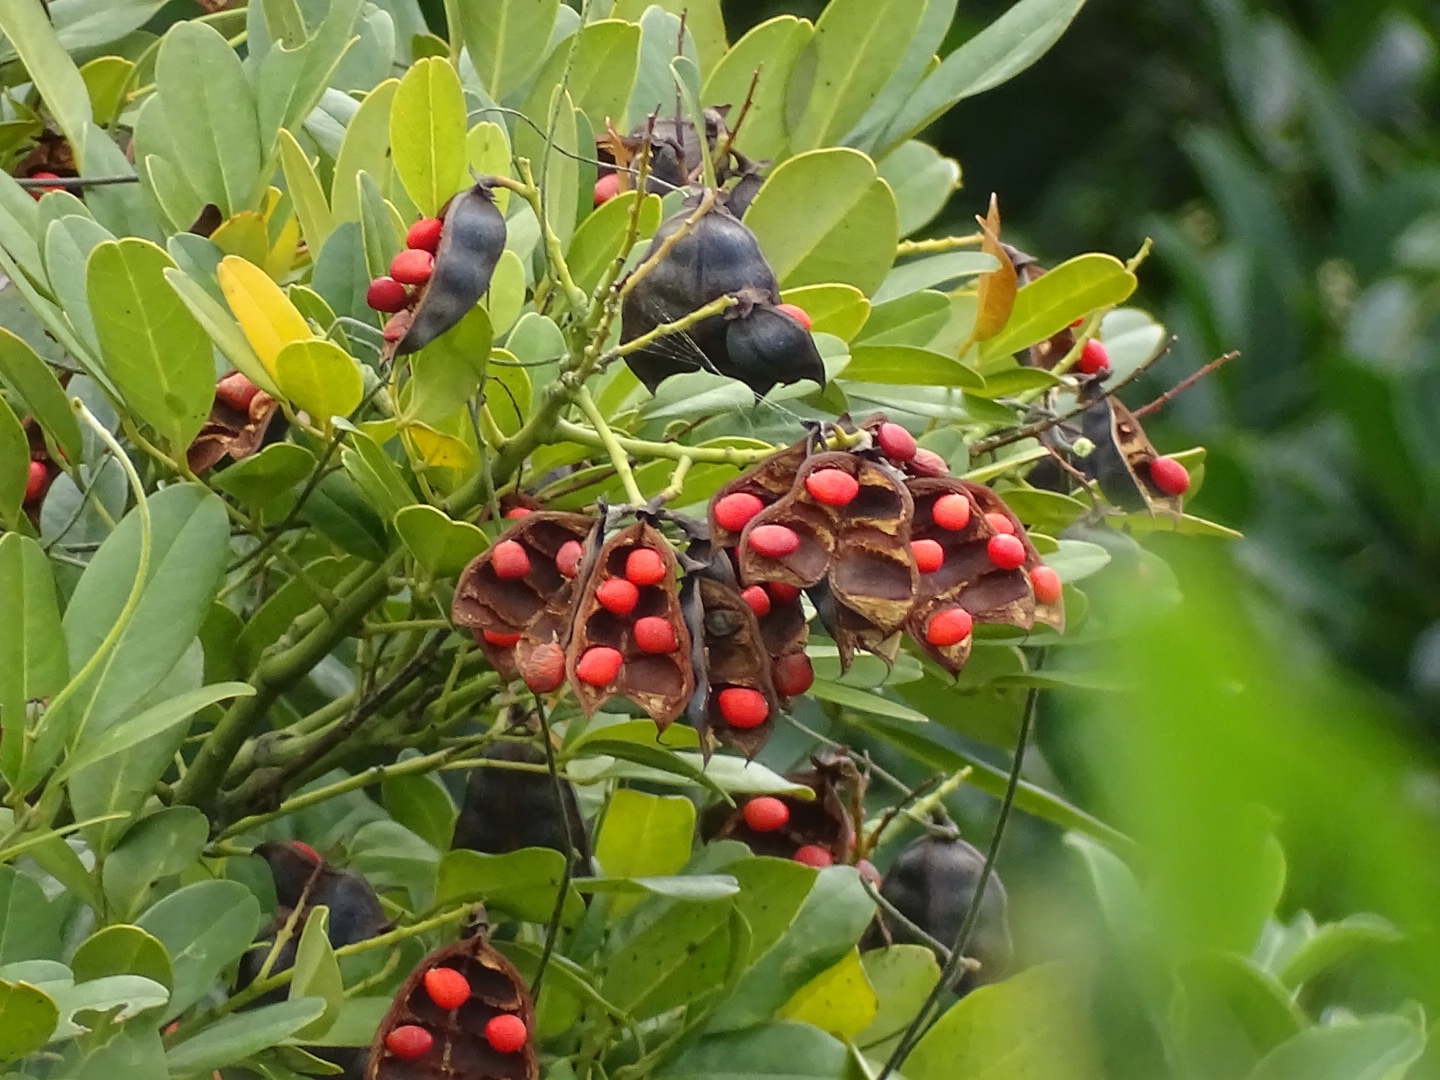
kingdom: Plantae
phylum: Tracheophyta
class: Magnoliopsida
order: Fabales
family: Fabaceae
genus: Ormosia
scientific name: Ormosia emarginata
